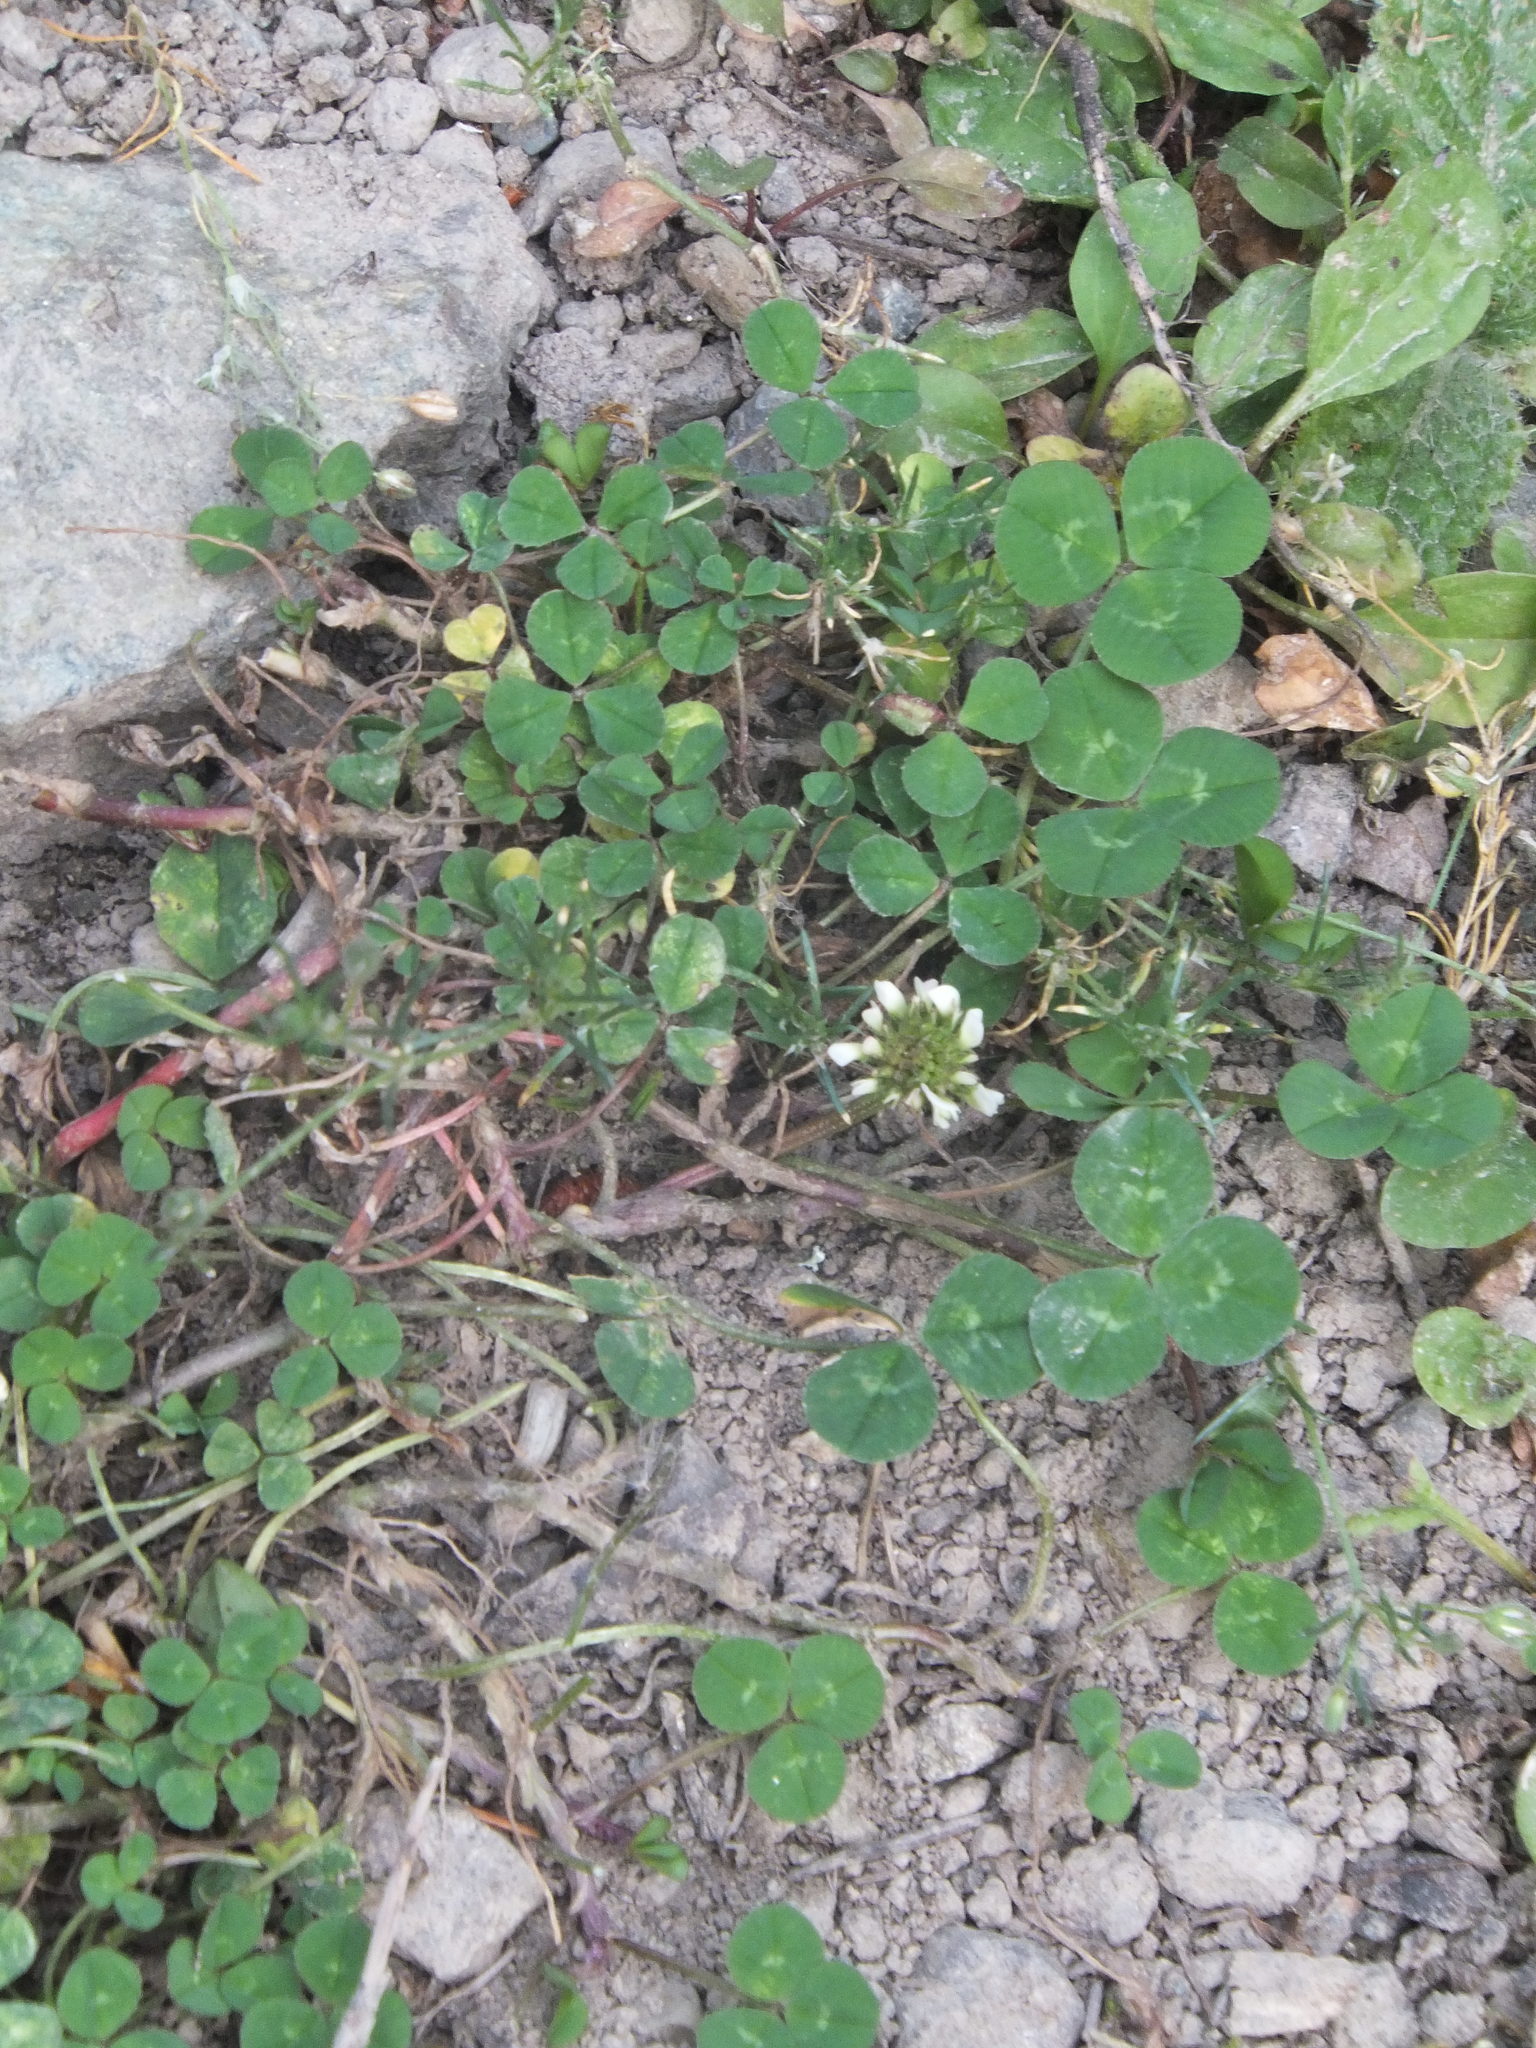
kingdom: Plantae
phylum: Tracheophyta
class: Magnoliopsida
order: Fabales
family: Fabaceae
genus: Trifolium
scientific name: Trifolium repens
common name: White clover
